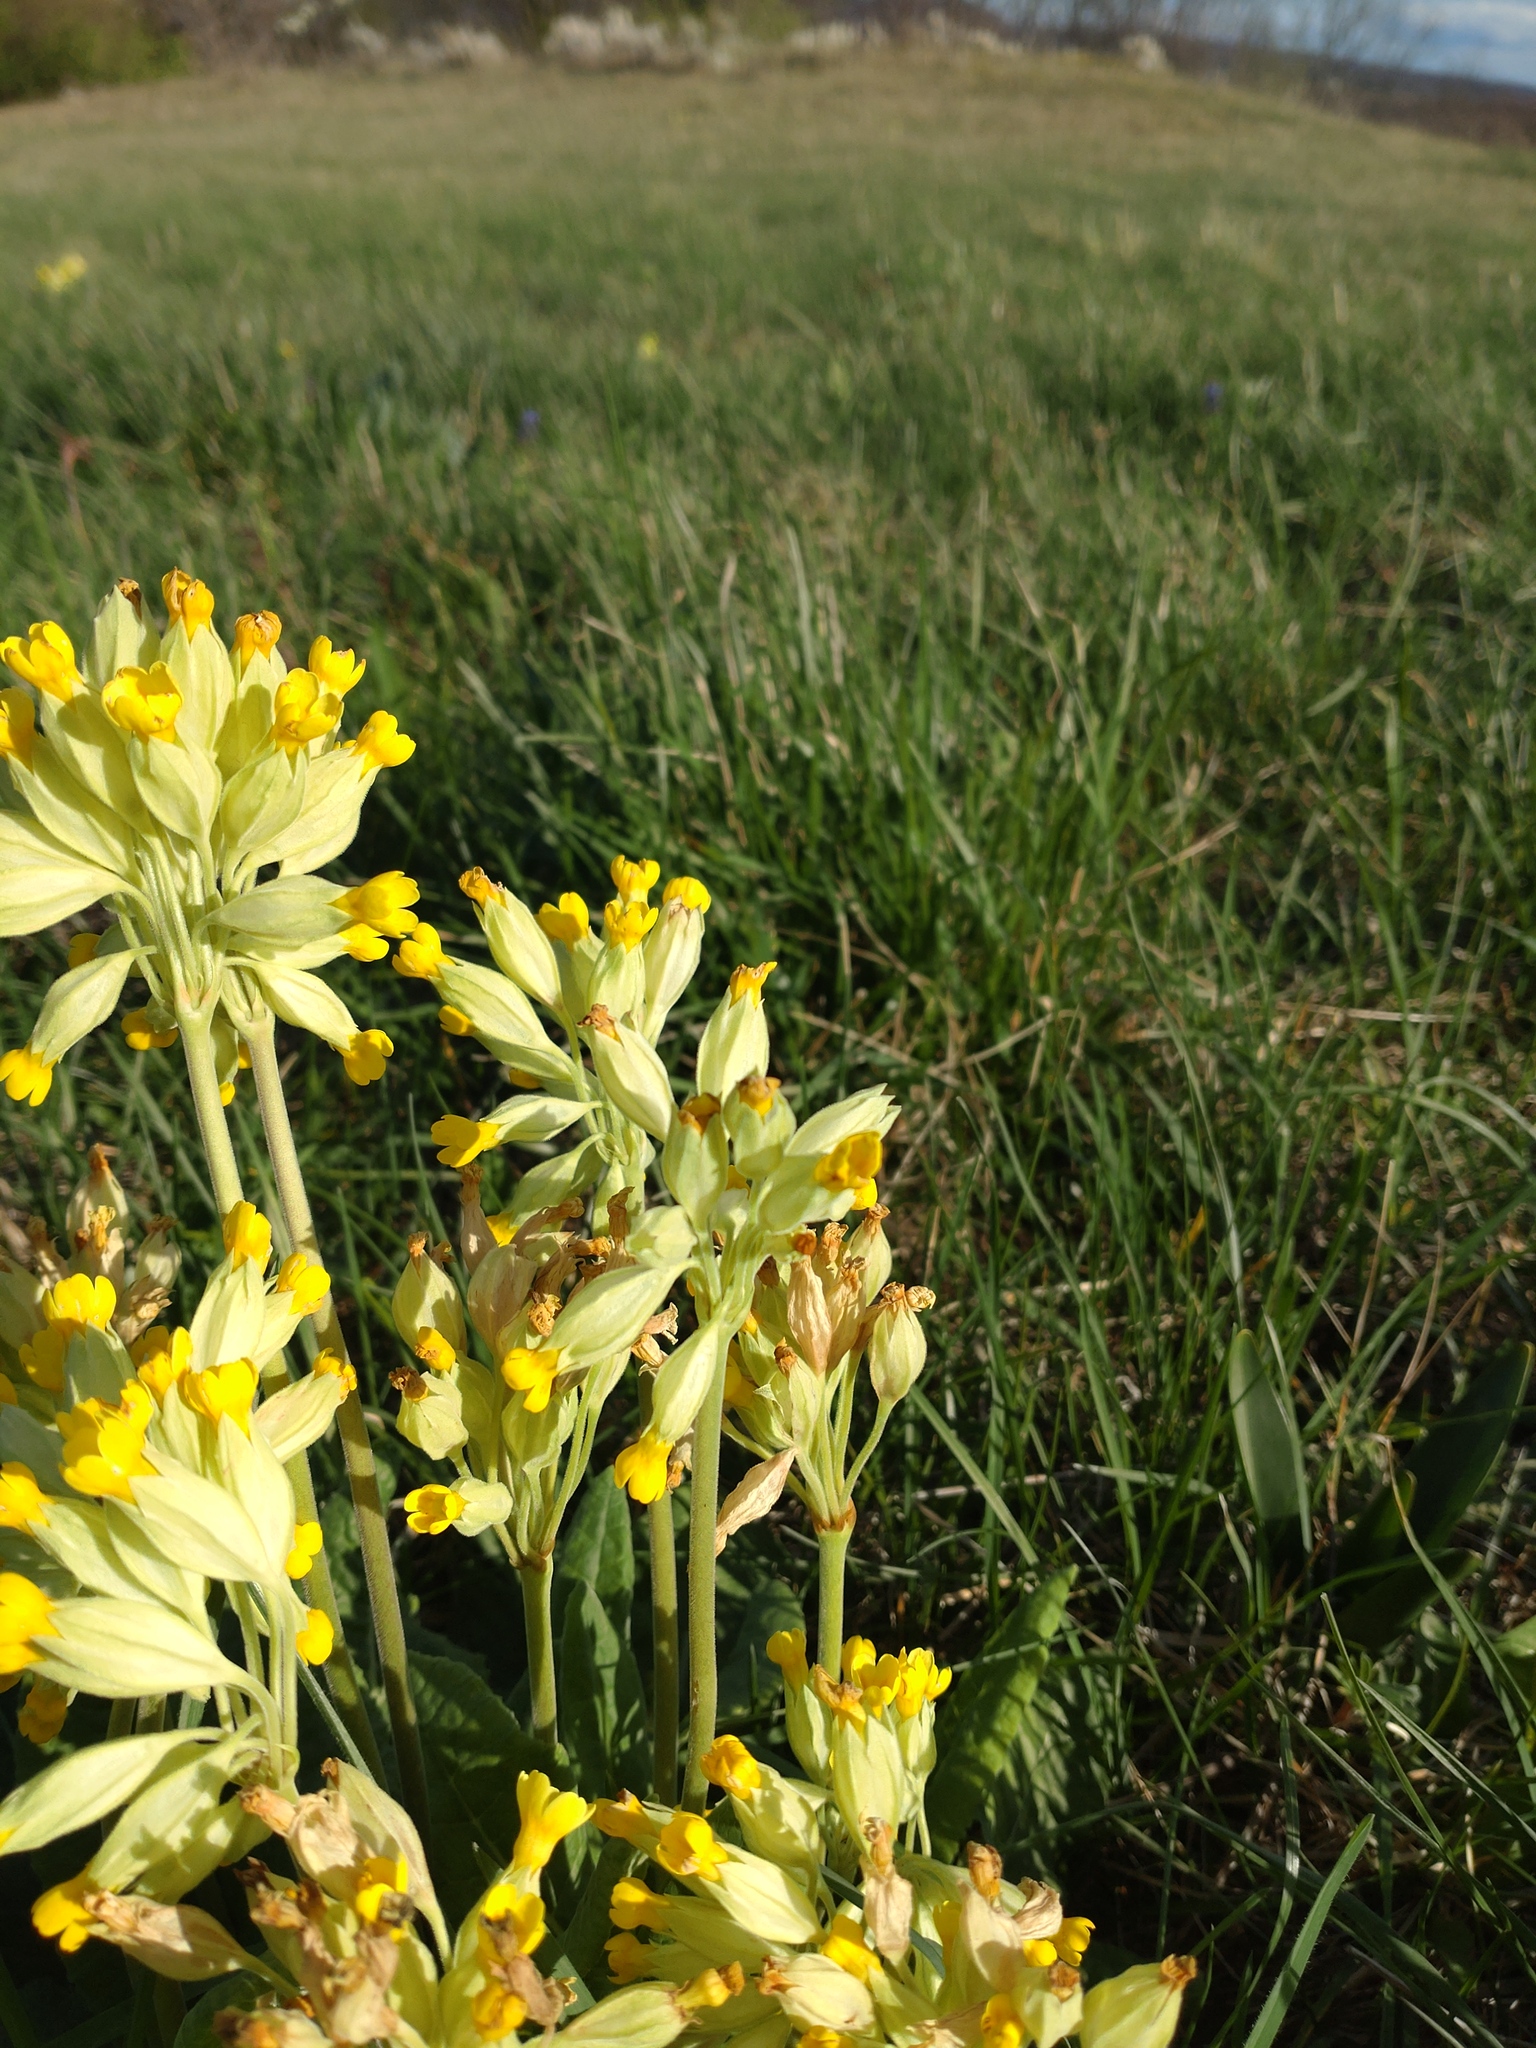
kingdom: Plantae
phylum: Tracheophyta
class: Magnoliopsida
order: Ericales
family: Primulaceae
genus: Primula
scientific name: Primula veris
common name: Cowslip
